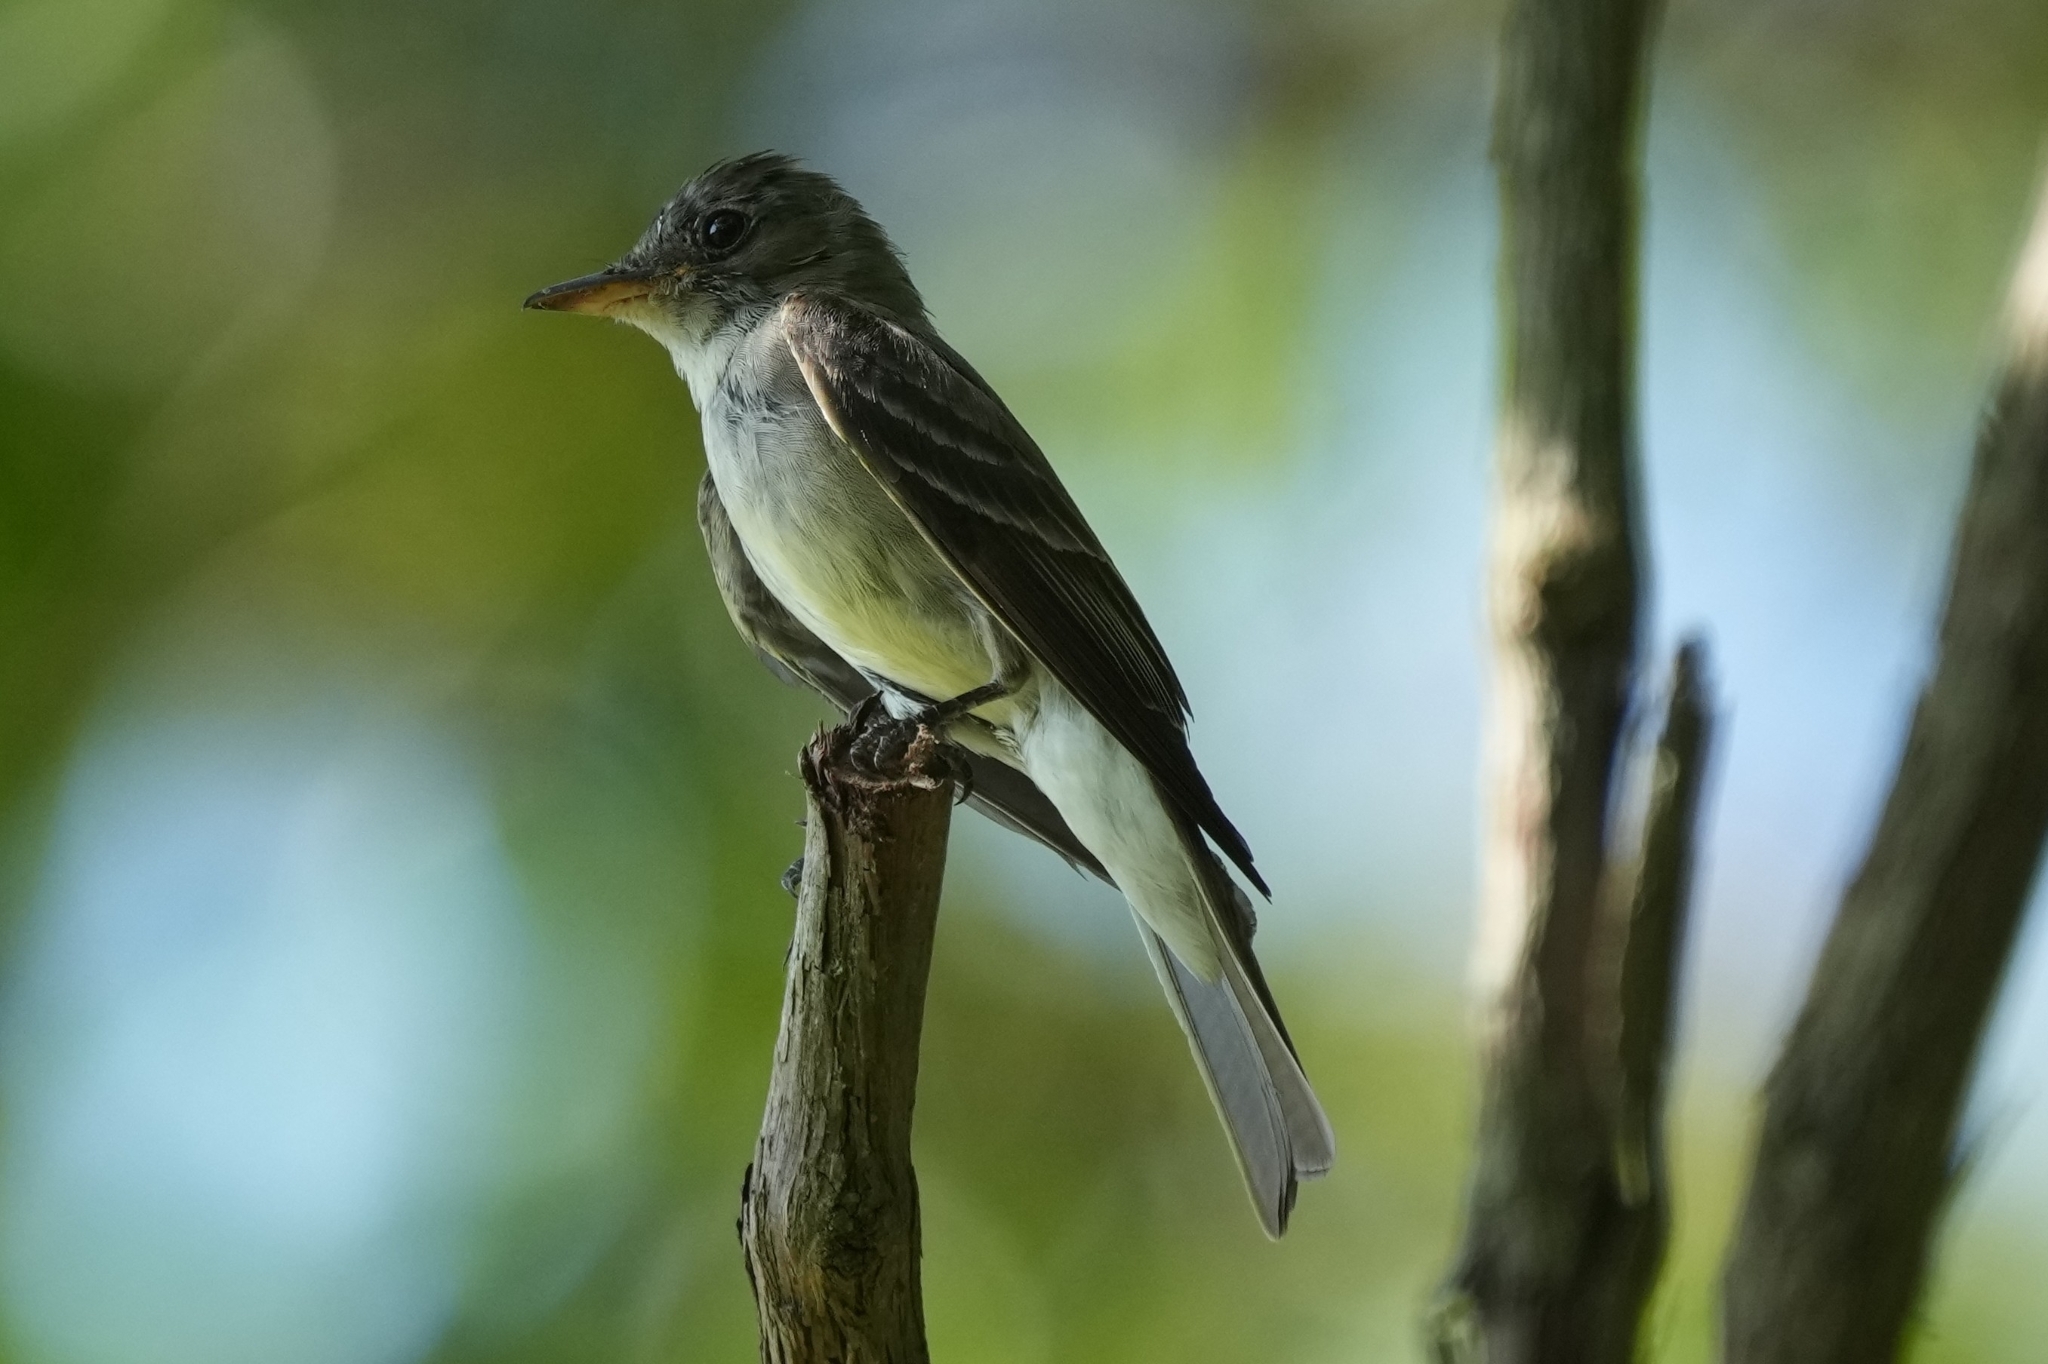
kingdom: Animalia
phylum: Chordata
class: Aves
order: Passeriformes
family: Tyrannidae
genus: Contopus
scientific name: Contopus virens
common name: Eastern wood-pewee
